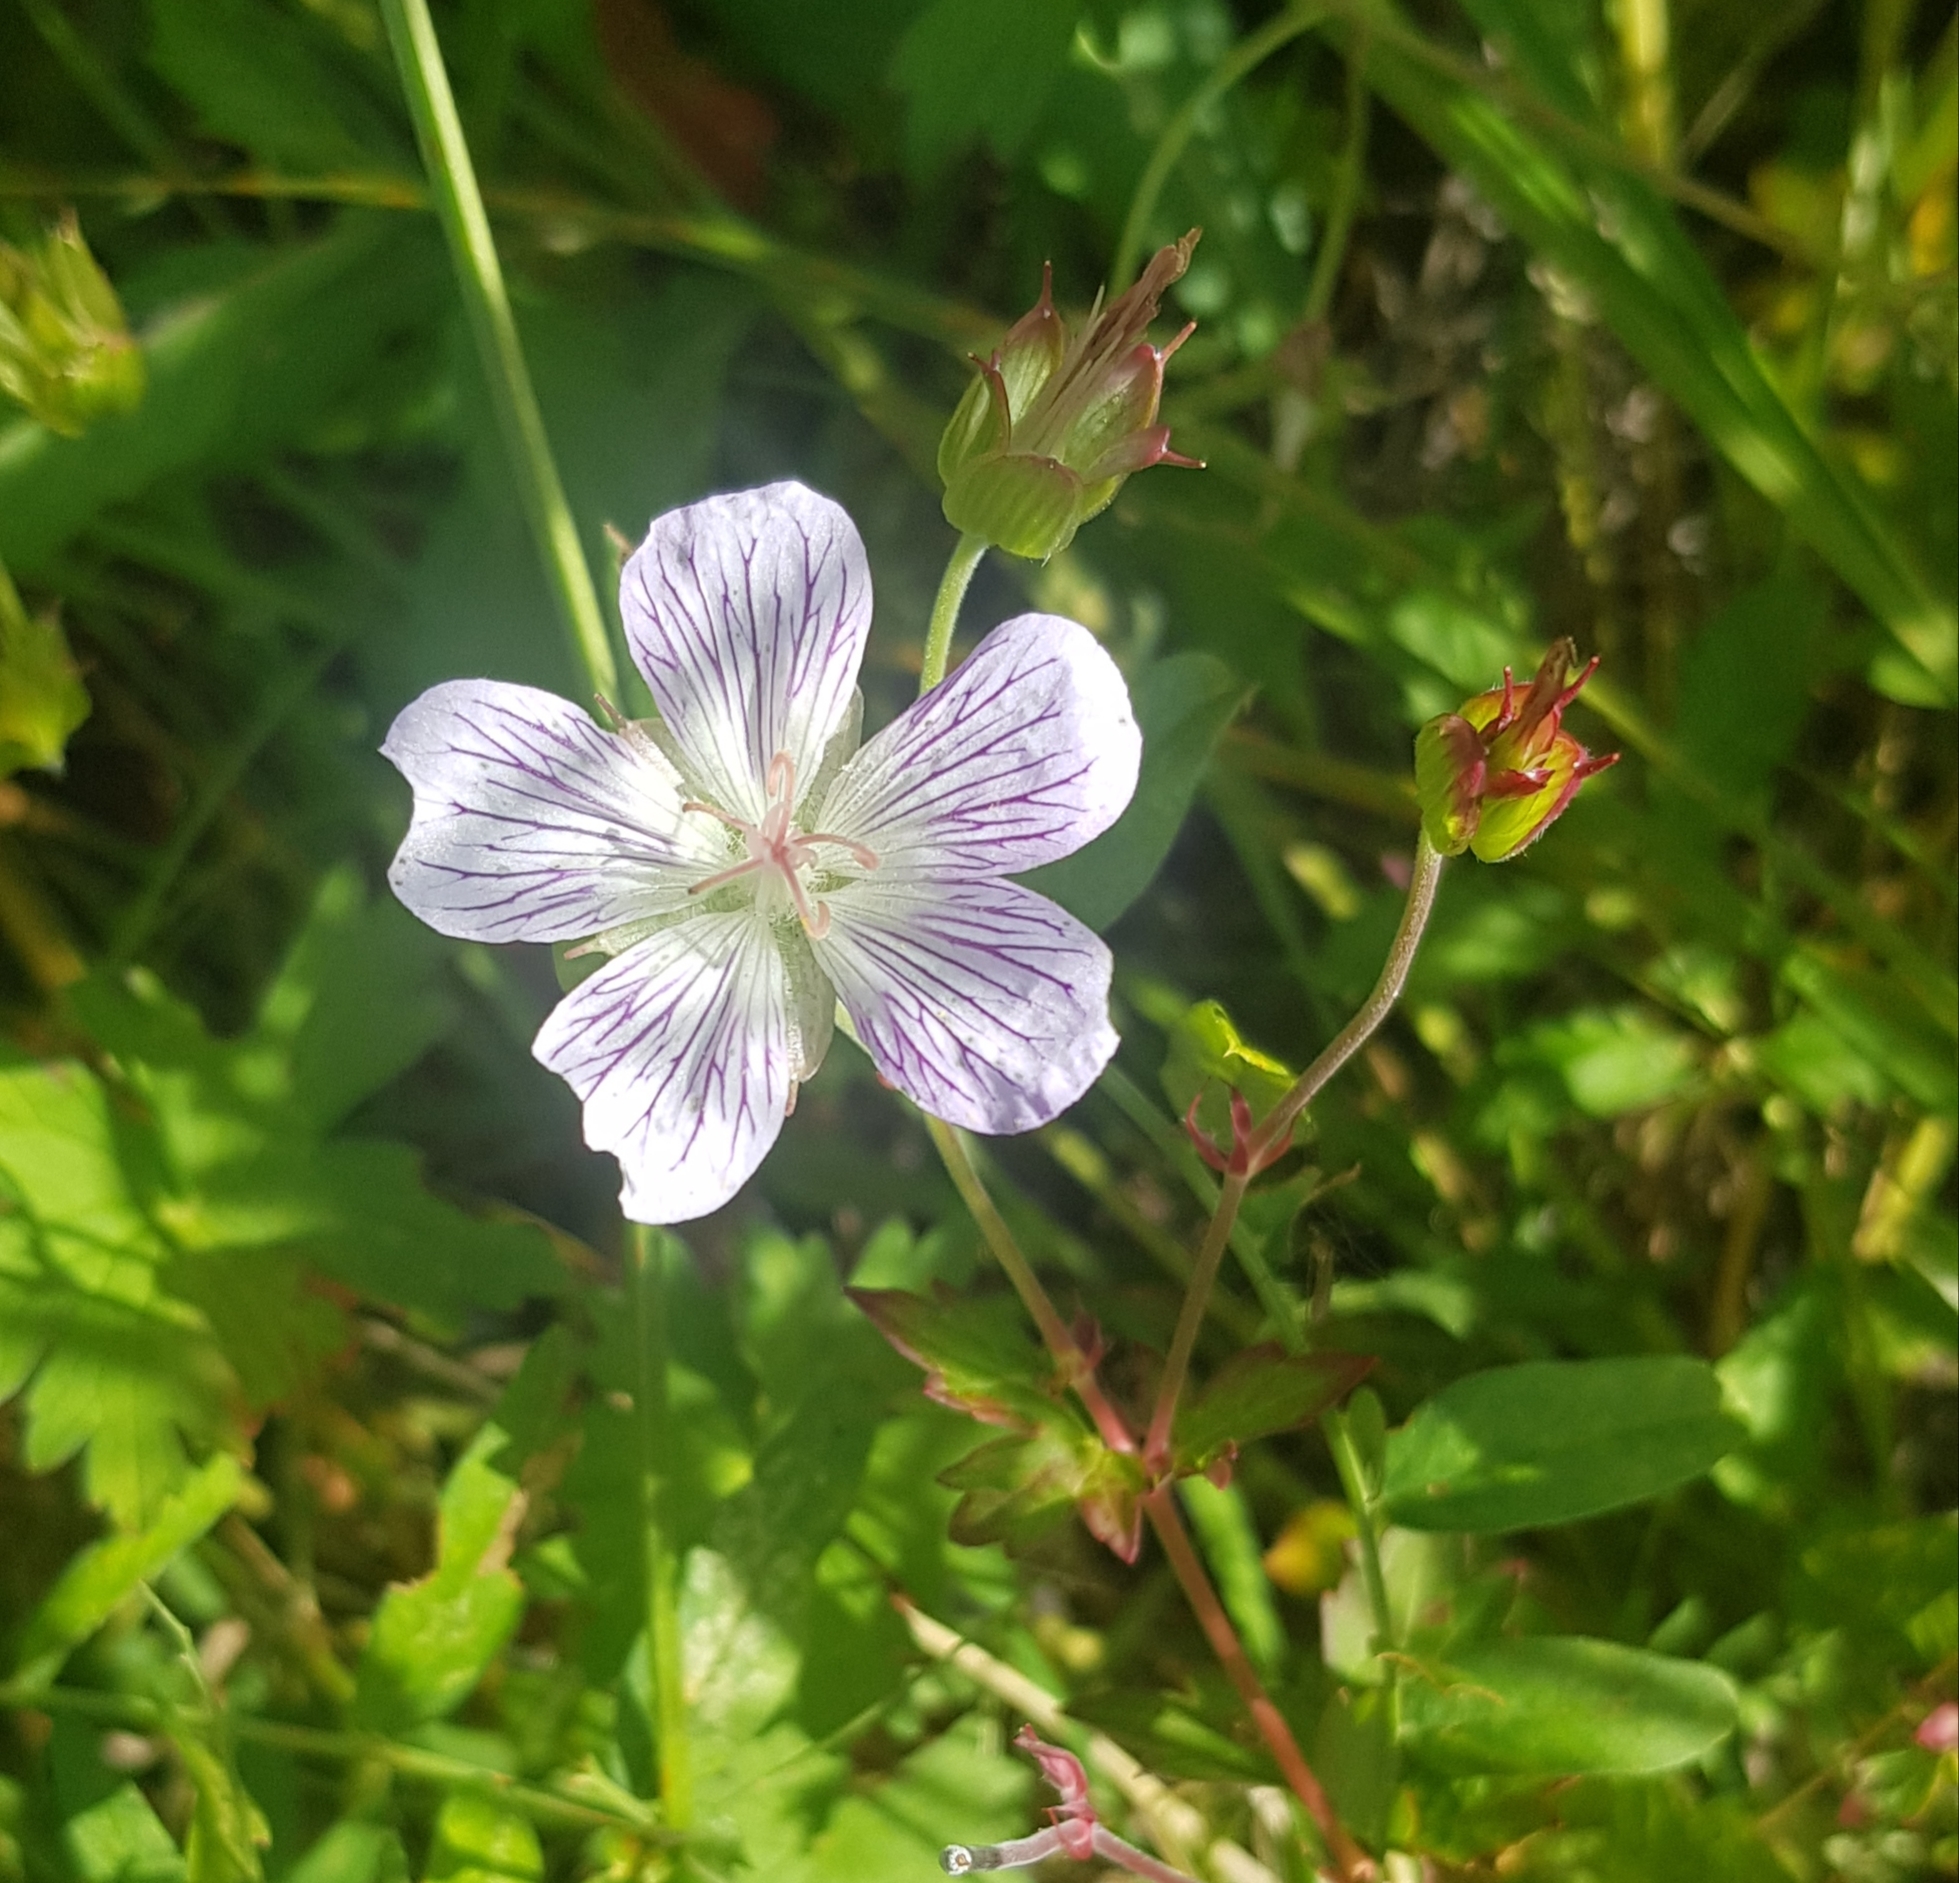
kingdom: Plantae
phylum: Tracheophyta
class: Magnoliopsida
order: Geraniales
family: Geraniaceae
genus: Geranium
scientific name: Geranium wlassovianum
